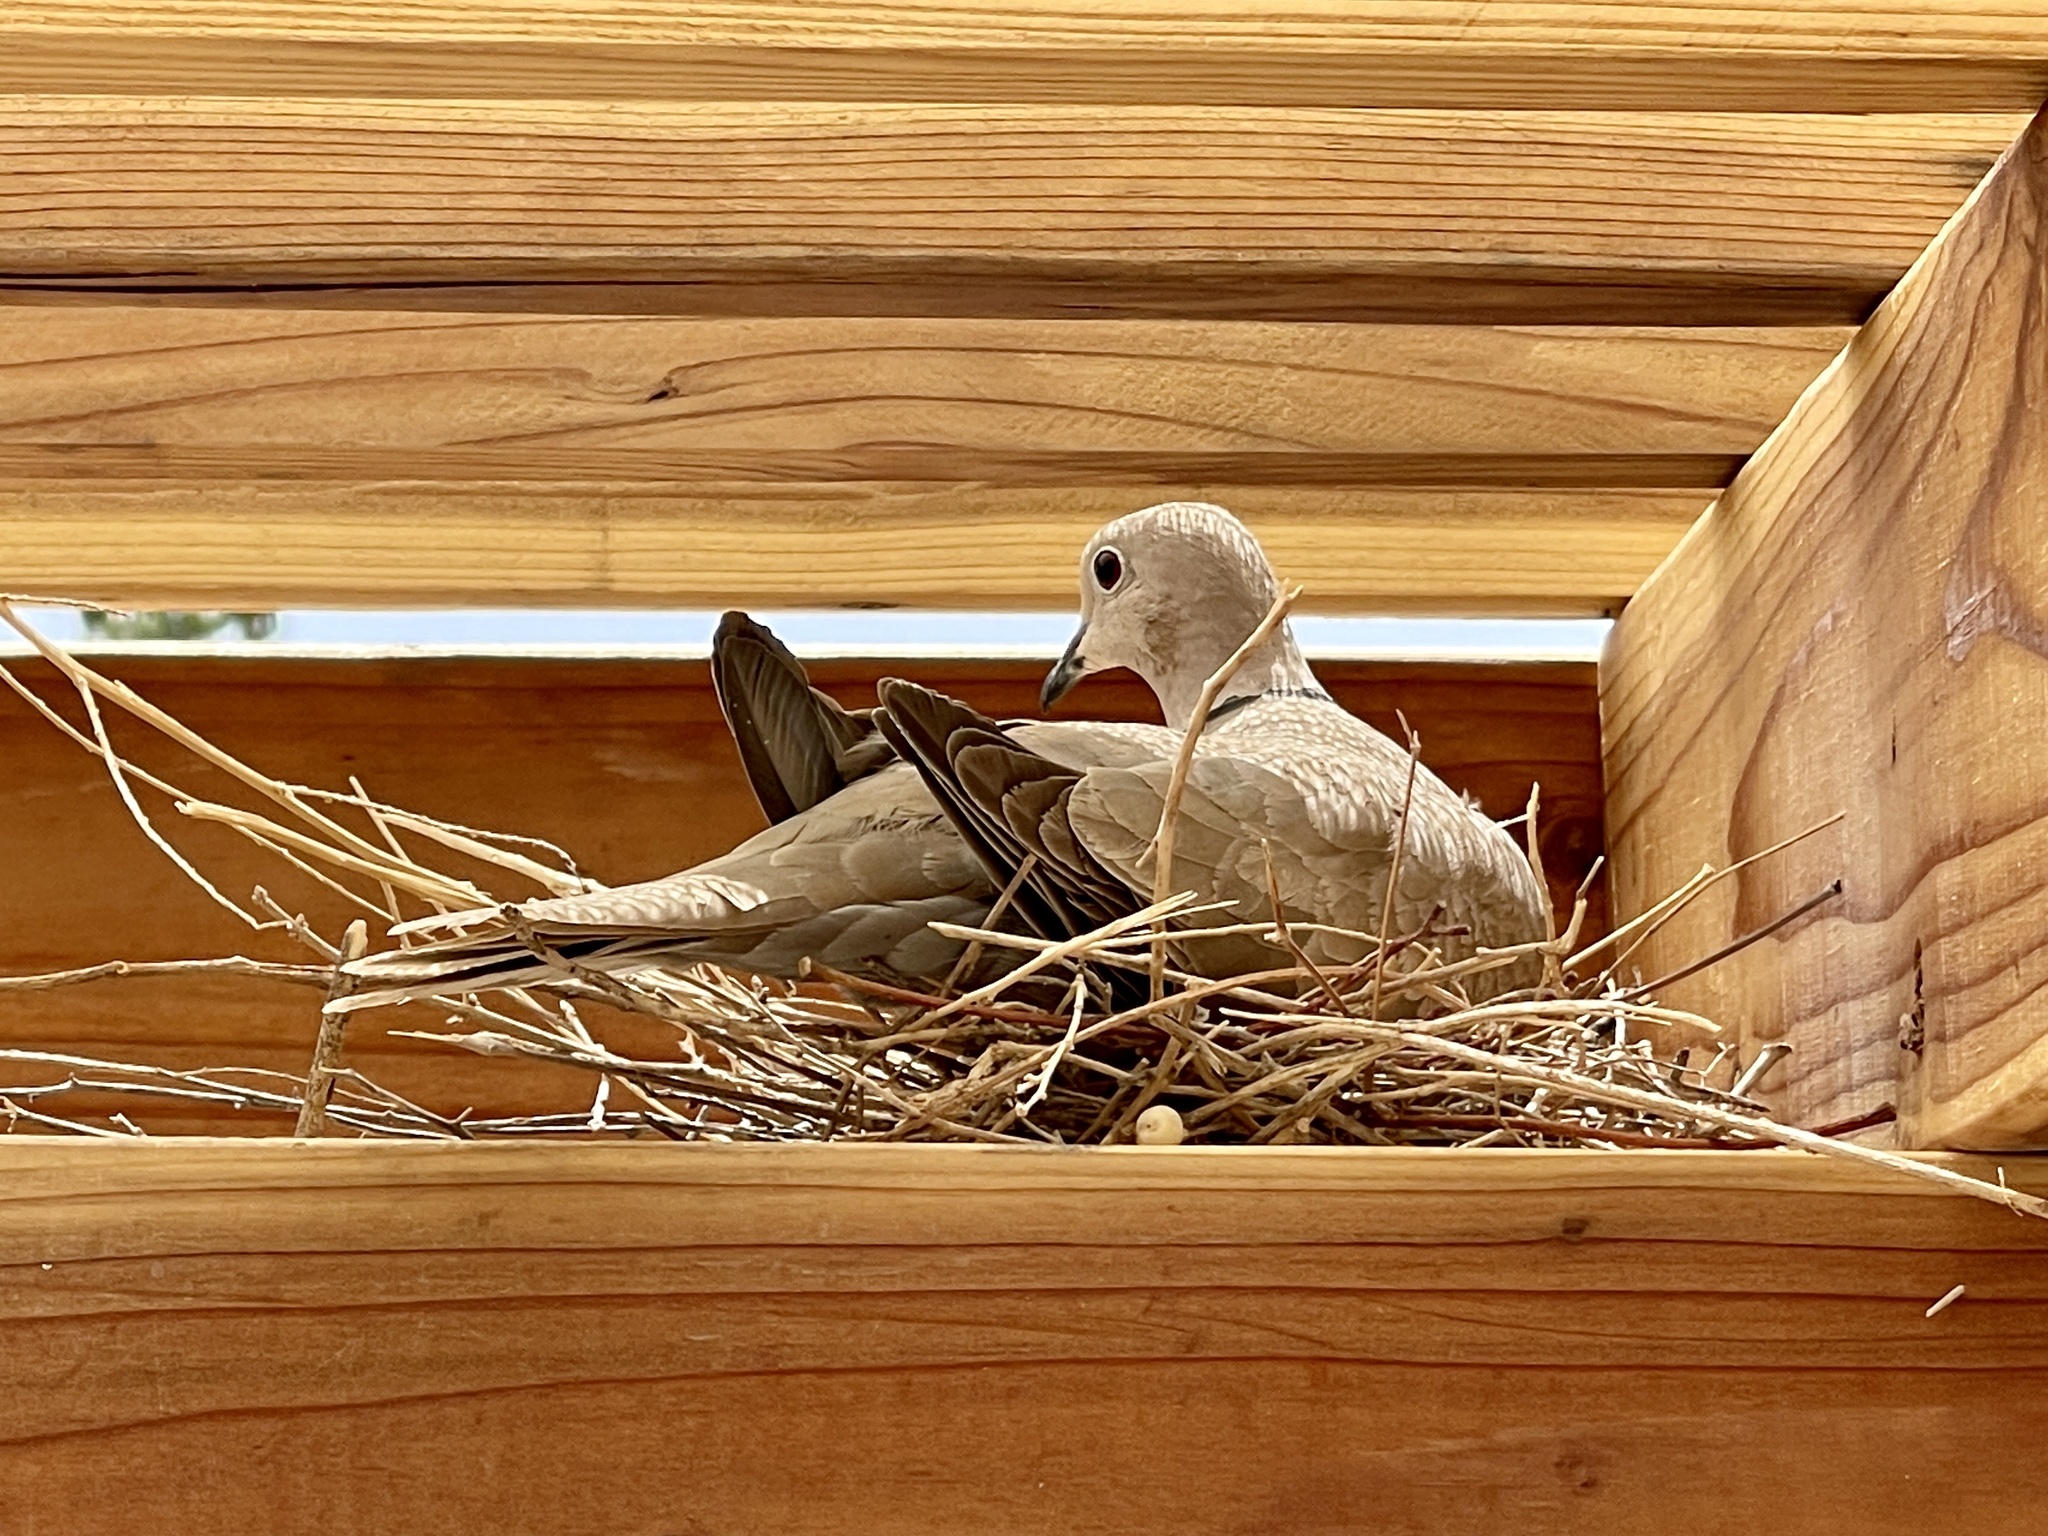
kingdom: Animalia
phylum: Chordata
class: Aves
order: Columbiformes
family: Columbidae
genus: Streptopelia
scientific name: Streptopelia decaocto
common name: Eurasian collared dove
